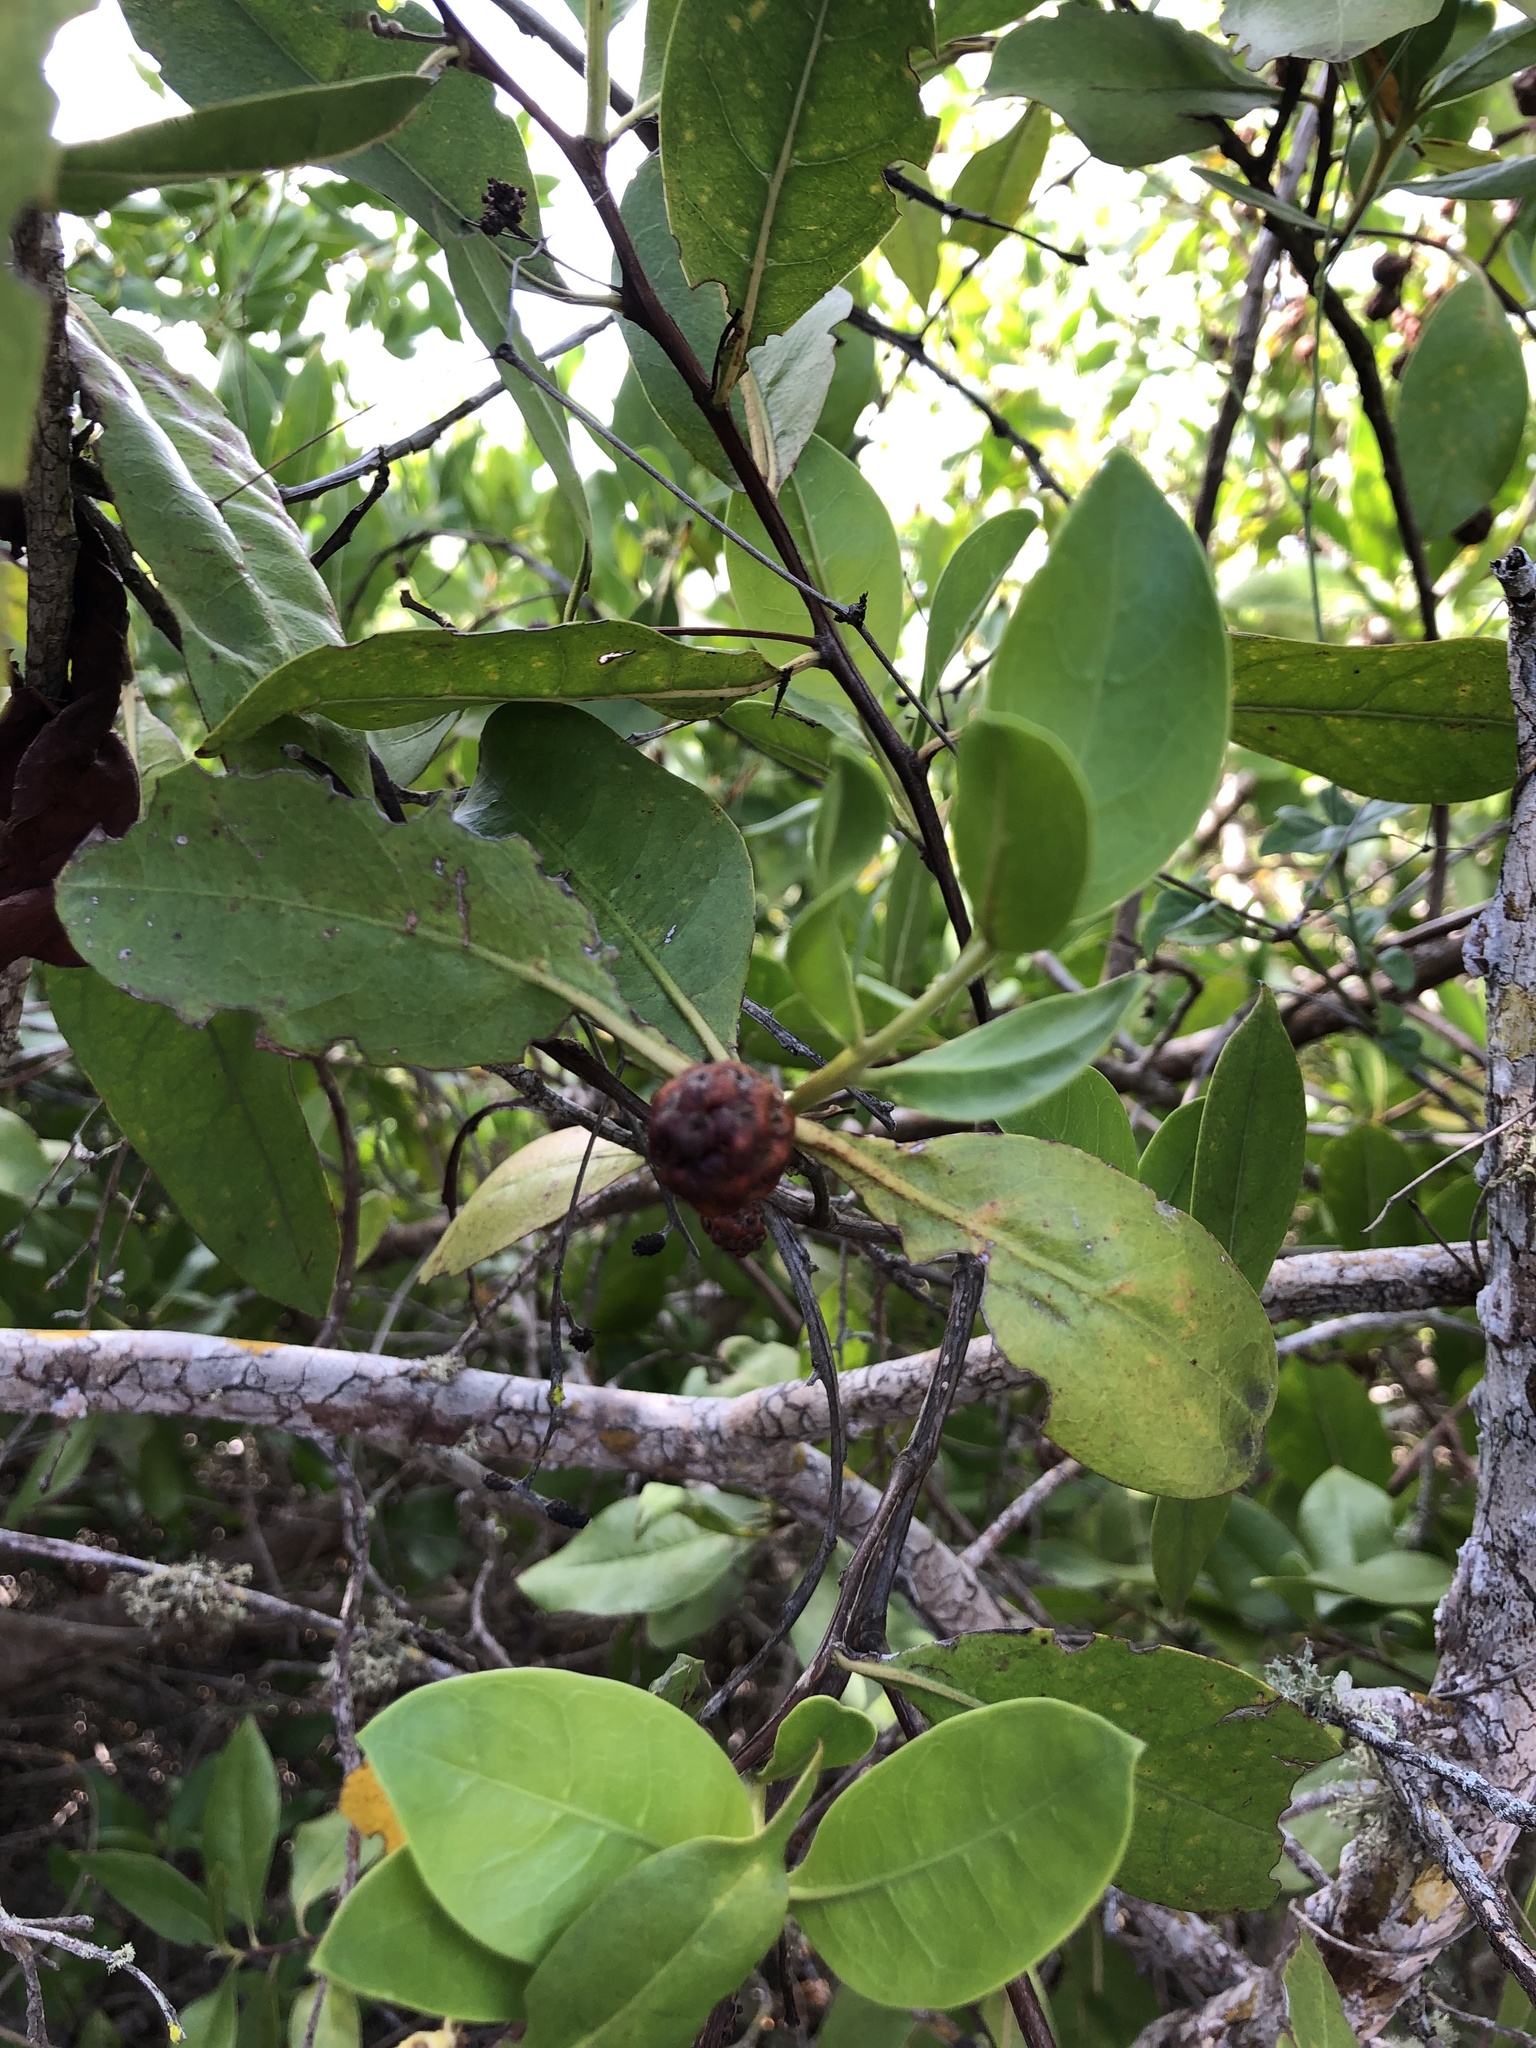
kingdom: Plantae
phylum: Tracheophyta
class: Magnoliopsida
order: Myrtales
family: Combretaceae
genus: Conocarpus
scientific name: Conocarpus erectus
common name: Button mangrove
